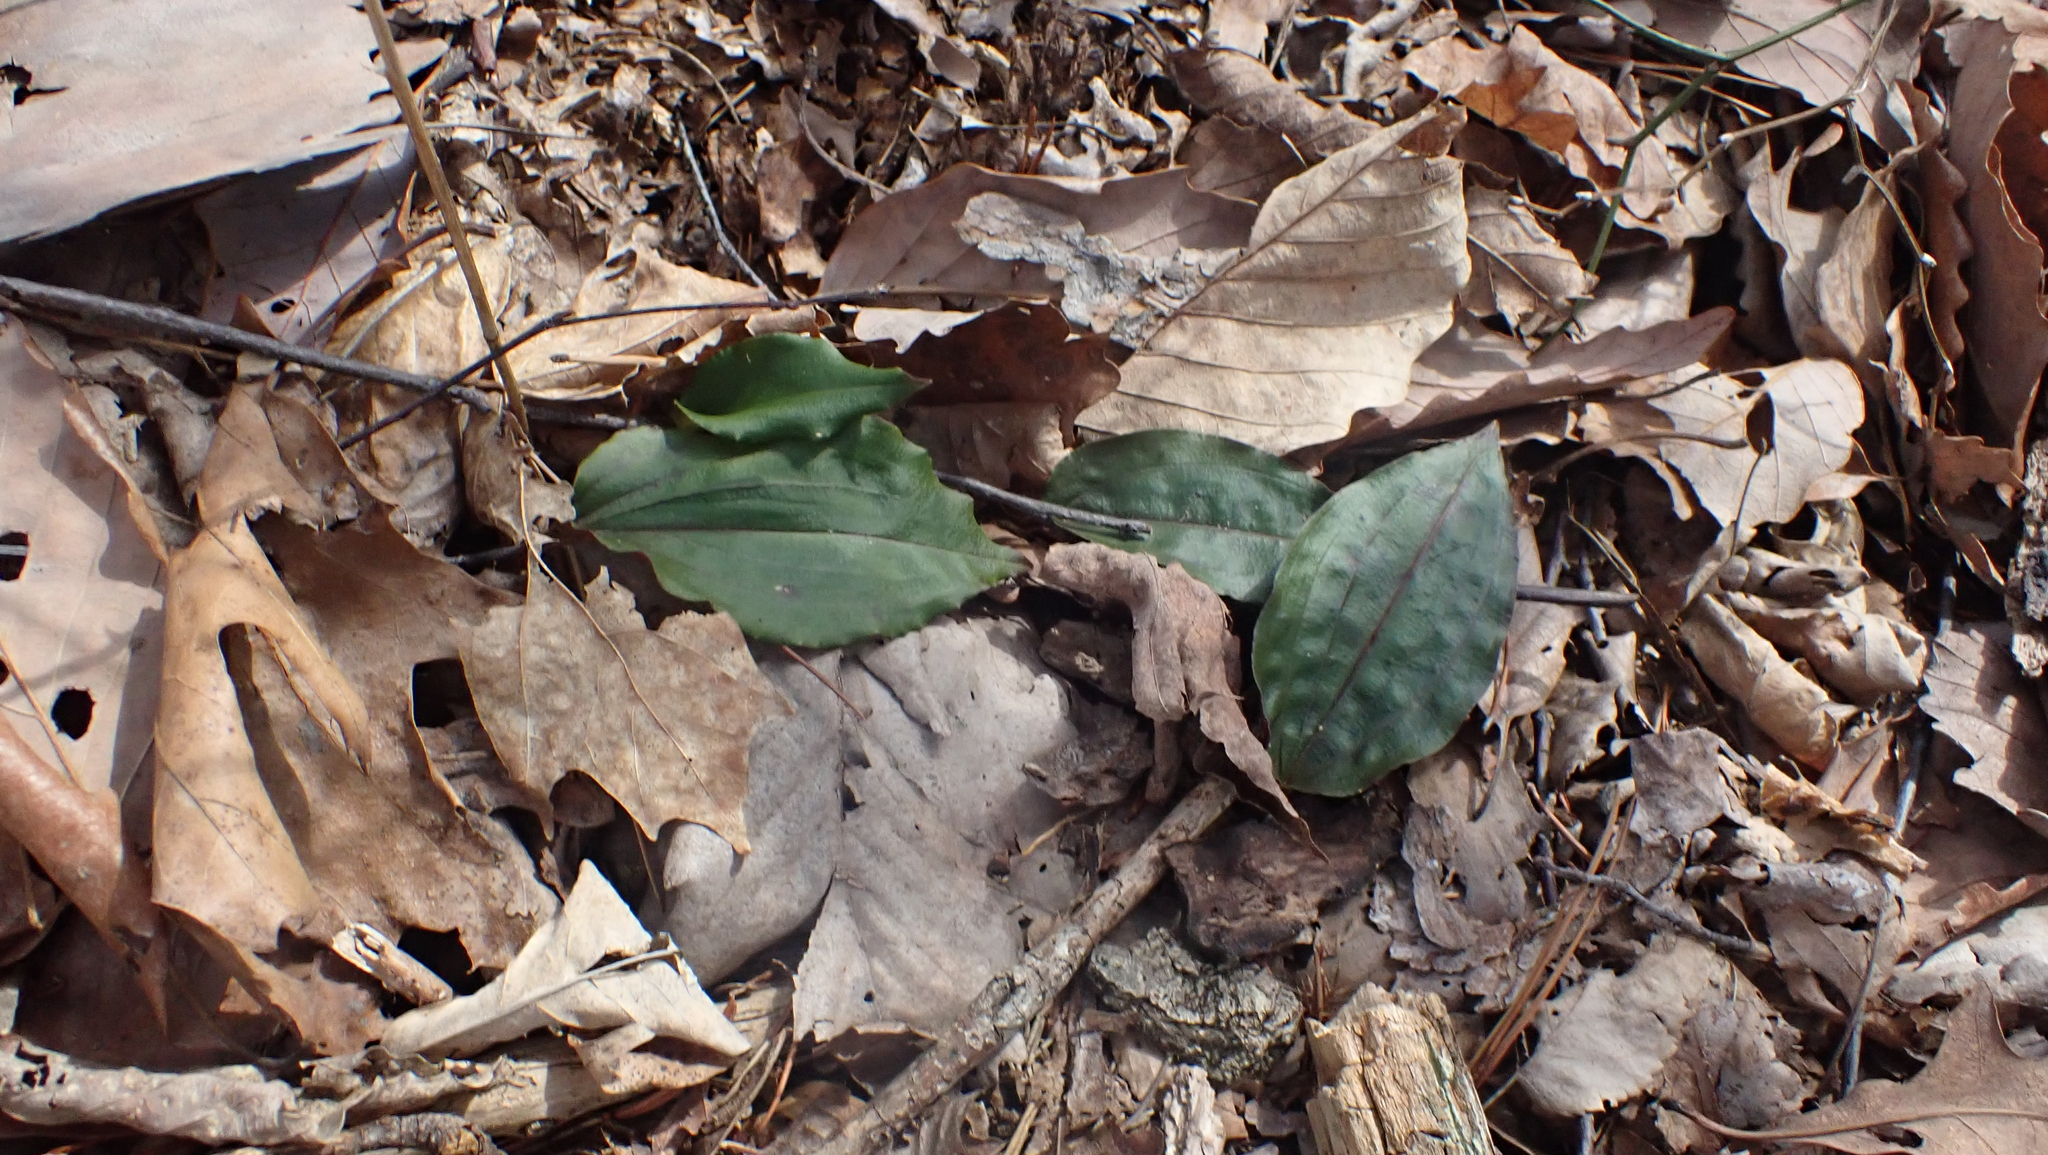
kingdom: Plantae
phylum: Tracheophyta
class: Liliopsida
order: Asparagales
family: Orchidaceae
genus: Tipularia
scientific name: Tipularia discolor
